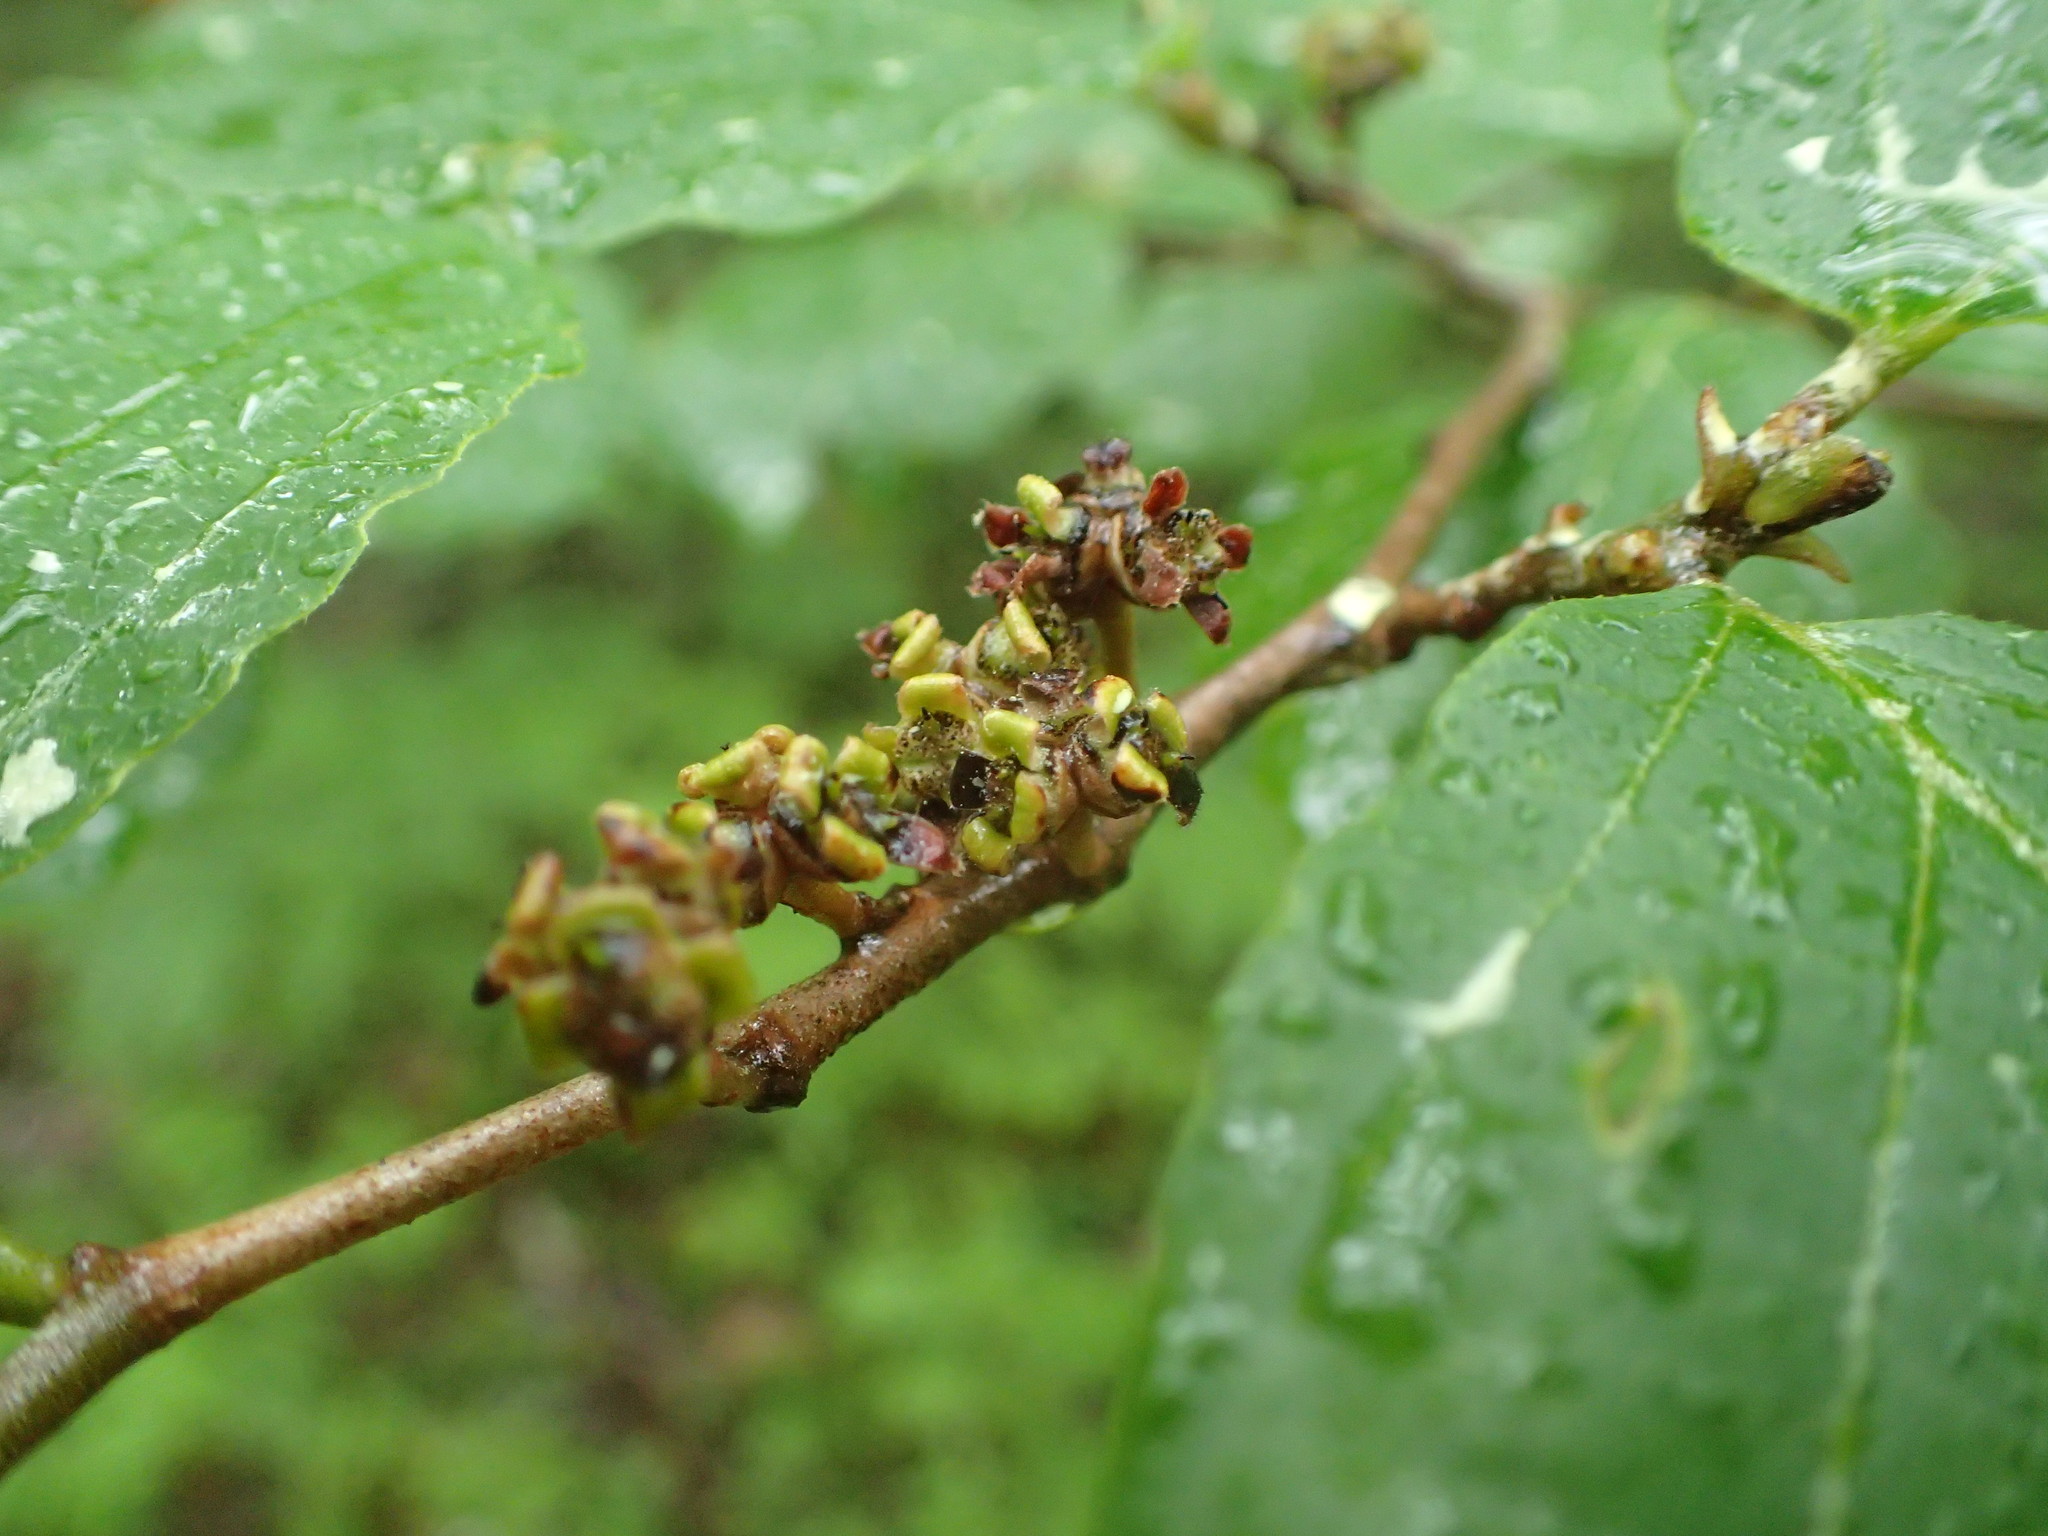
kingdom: Plantae
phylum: Tracheophyta
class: Magnoliopsida
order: Saxifragales
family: Hamamelidaceae
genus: Hamamelis
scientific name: Hamamelis virginiana
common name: Witch-hazel
